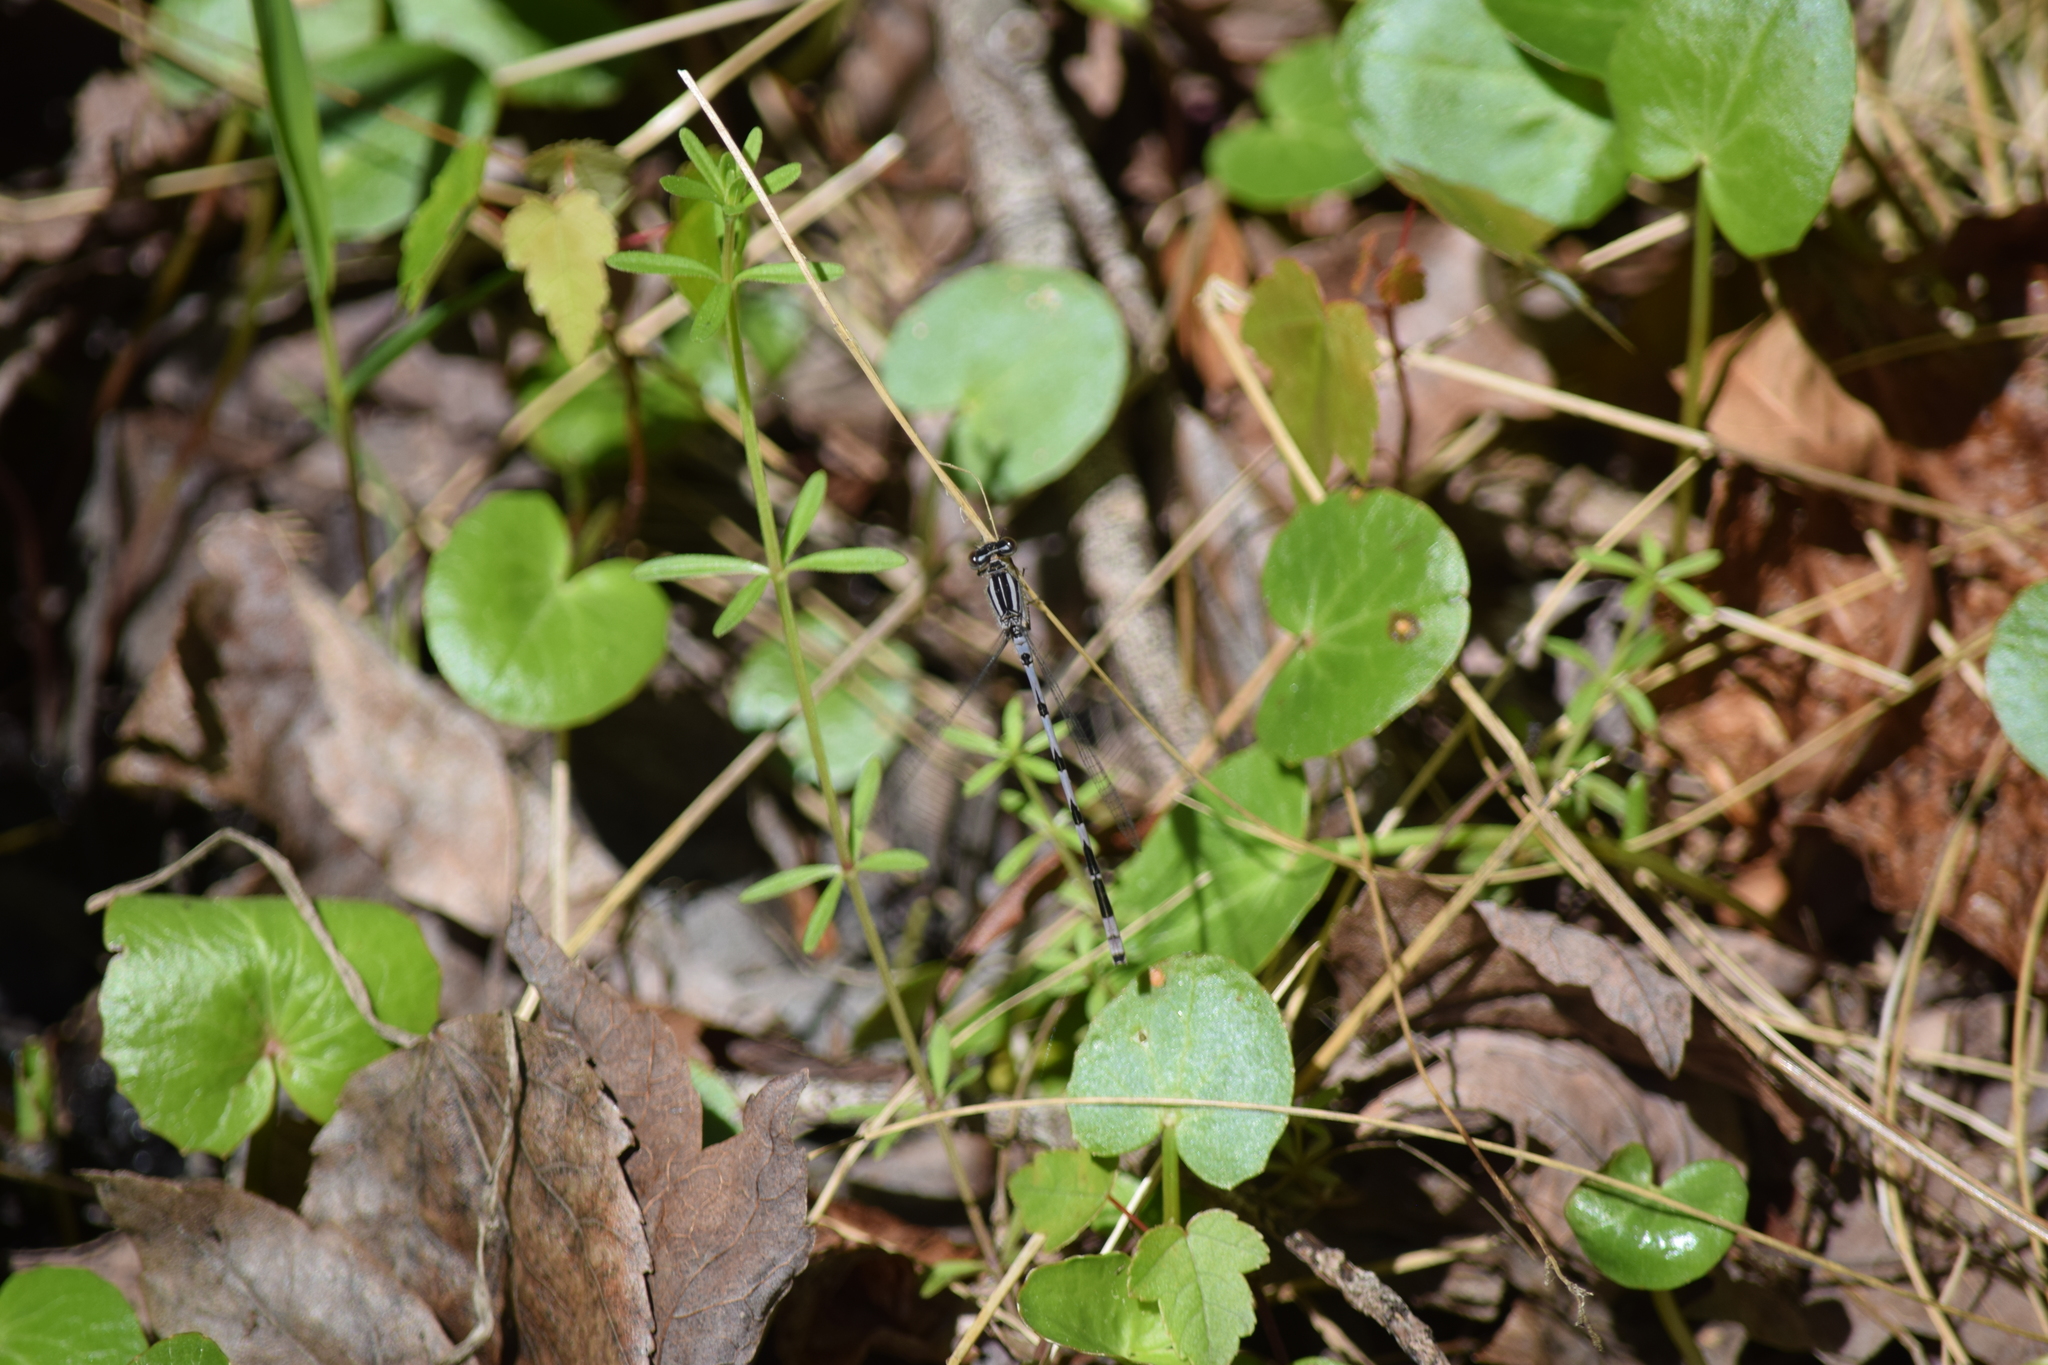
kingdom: Animalia
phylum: Arthropoda
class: Insecta
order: Odonata
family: Coenagrionidae
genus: Enallagma
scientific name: Enallagma durum
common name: Big bluet
